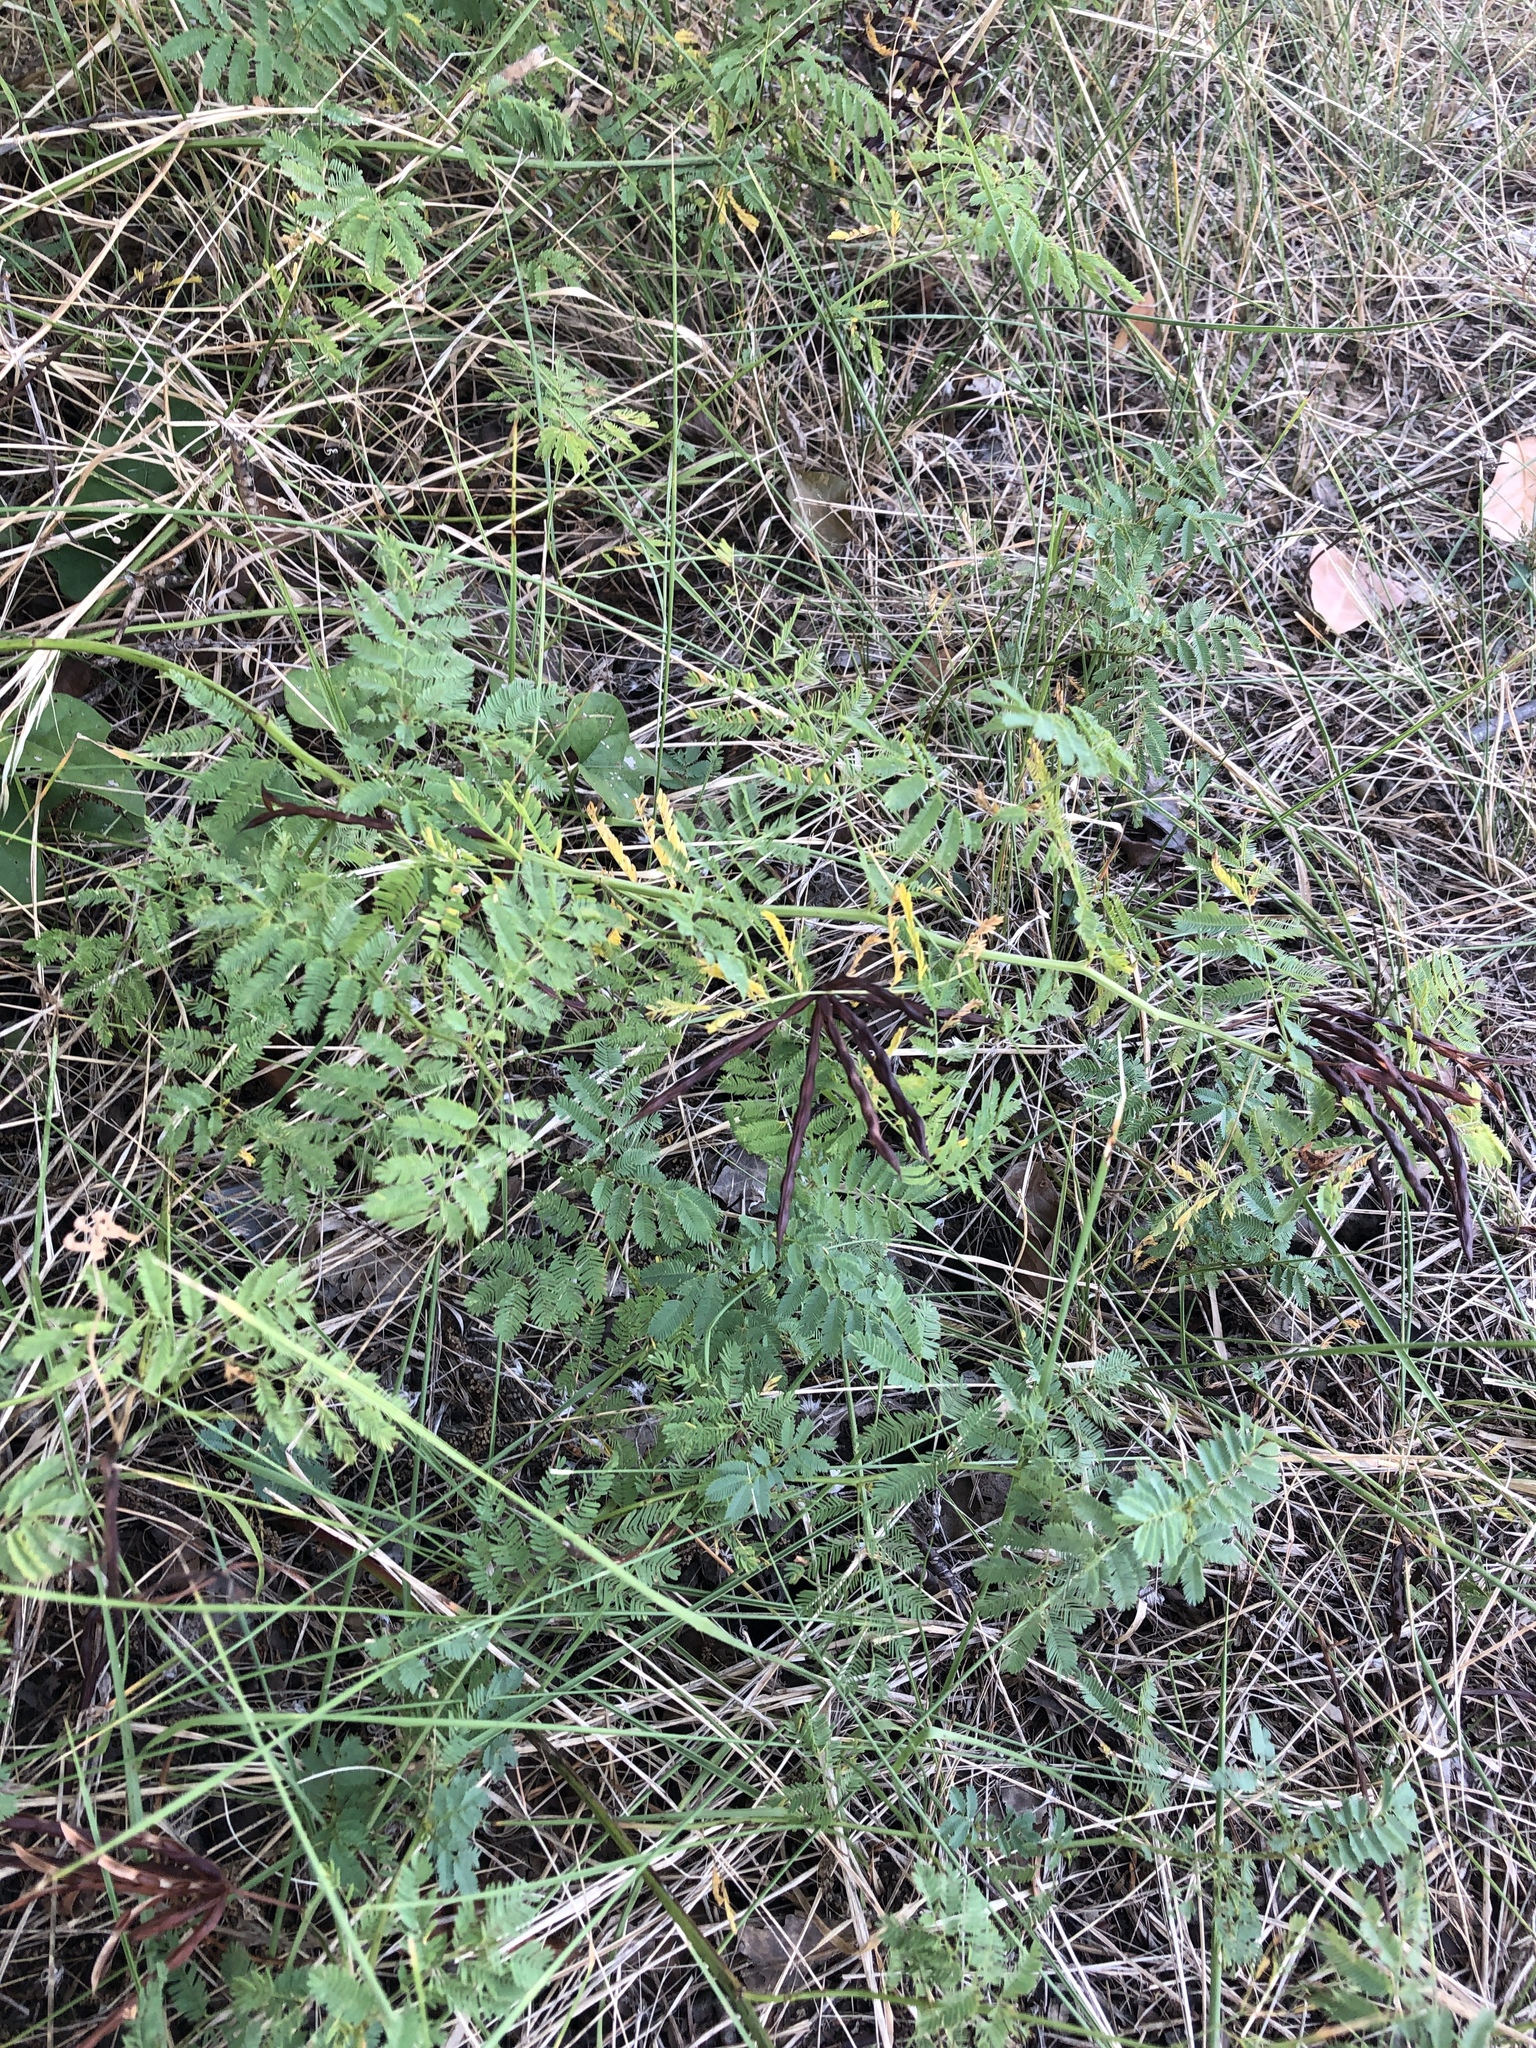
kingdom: Plantae
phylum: Tracheophyta
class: Magnoliopsida
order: Fabales
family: Fabaceae
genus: Desmanthus
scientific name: Desmanthus leptolobus
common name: Prairie-mimosa
